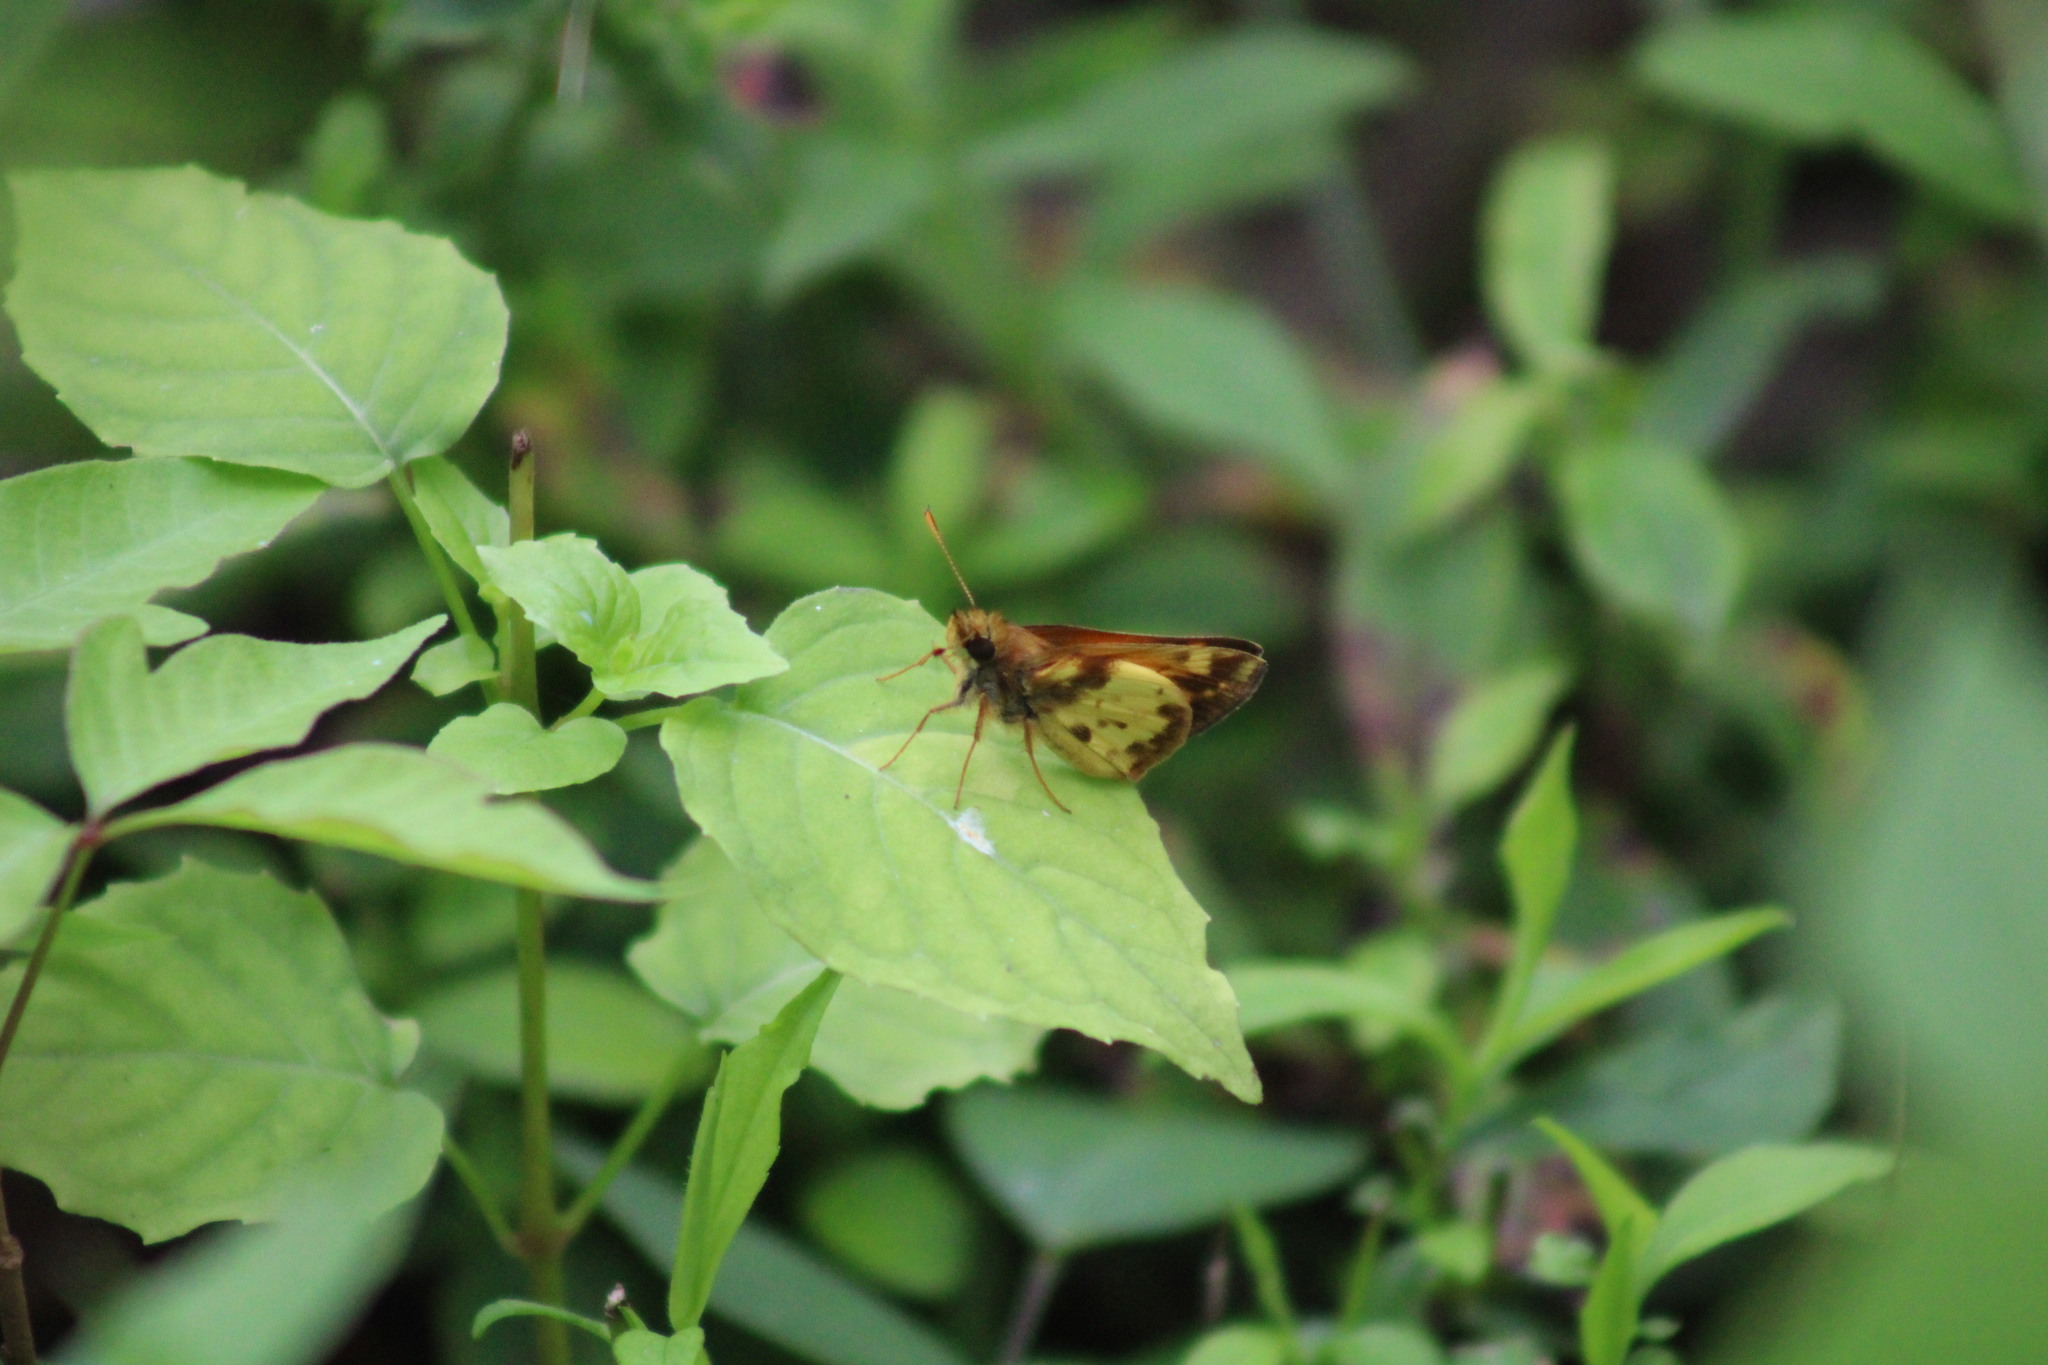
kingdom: Animalia
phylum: Arthropoda
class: Insecta
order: Lepidoptera
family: Hesperiidae
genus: Lon
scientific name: Lon zabulon
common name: Zabulon skipper
